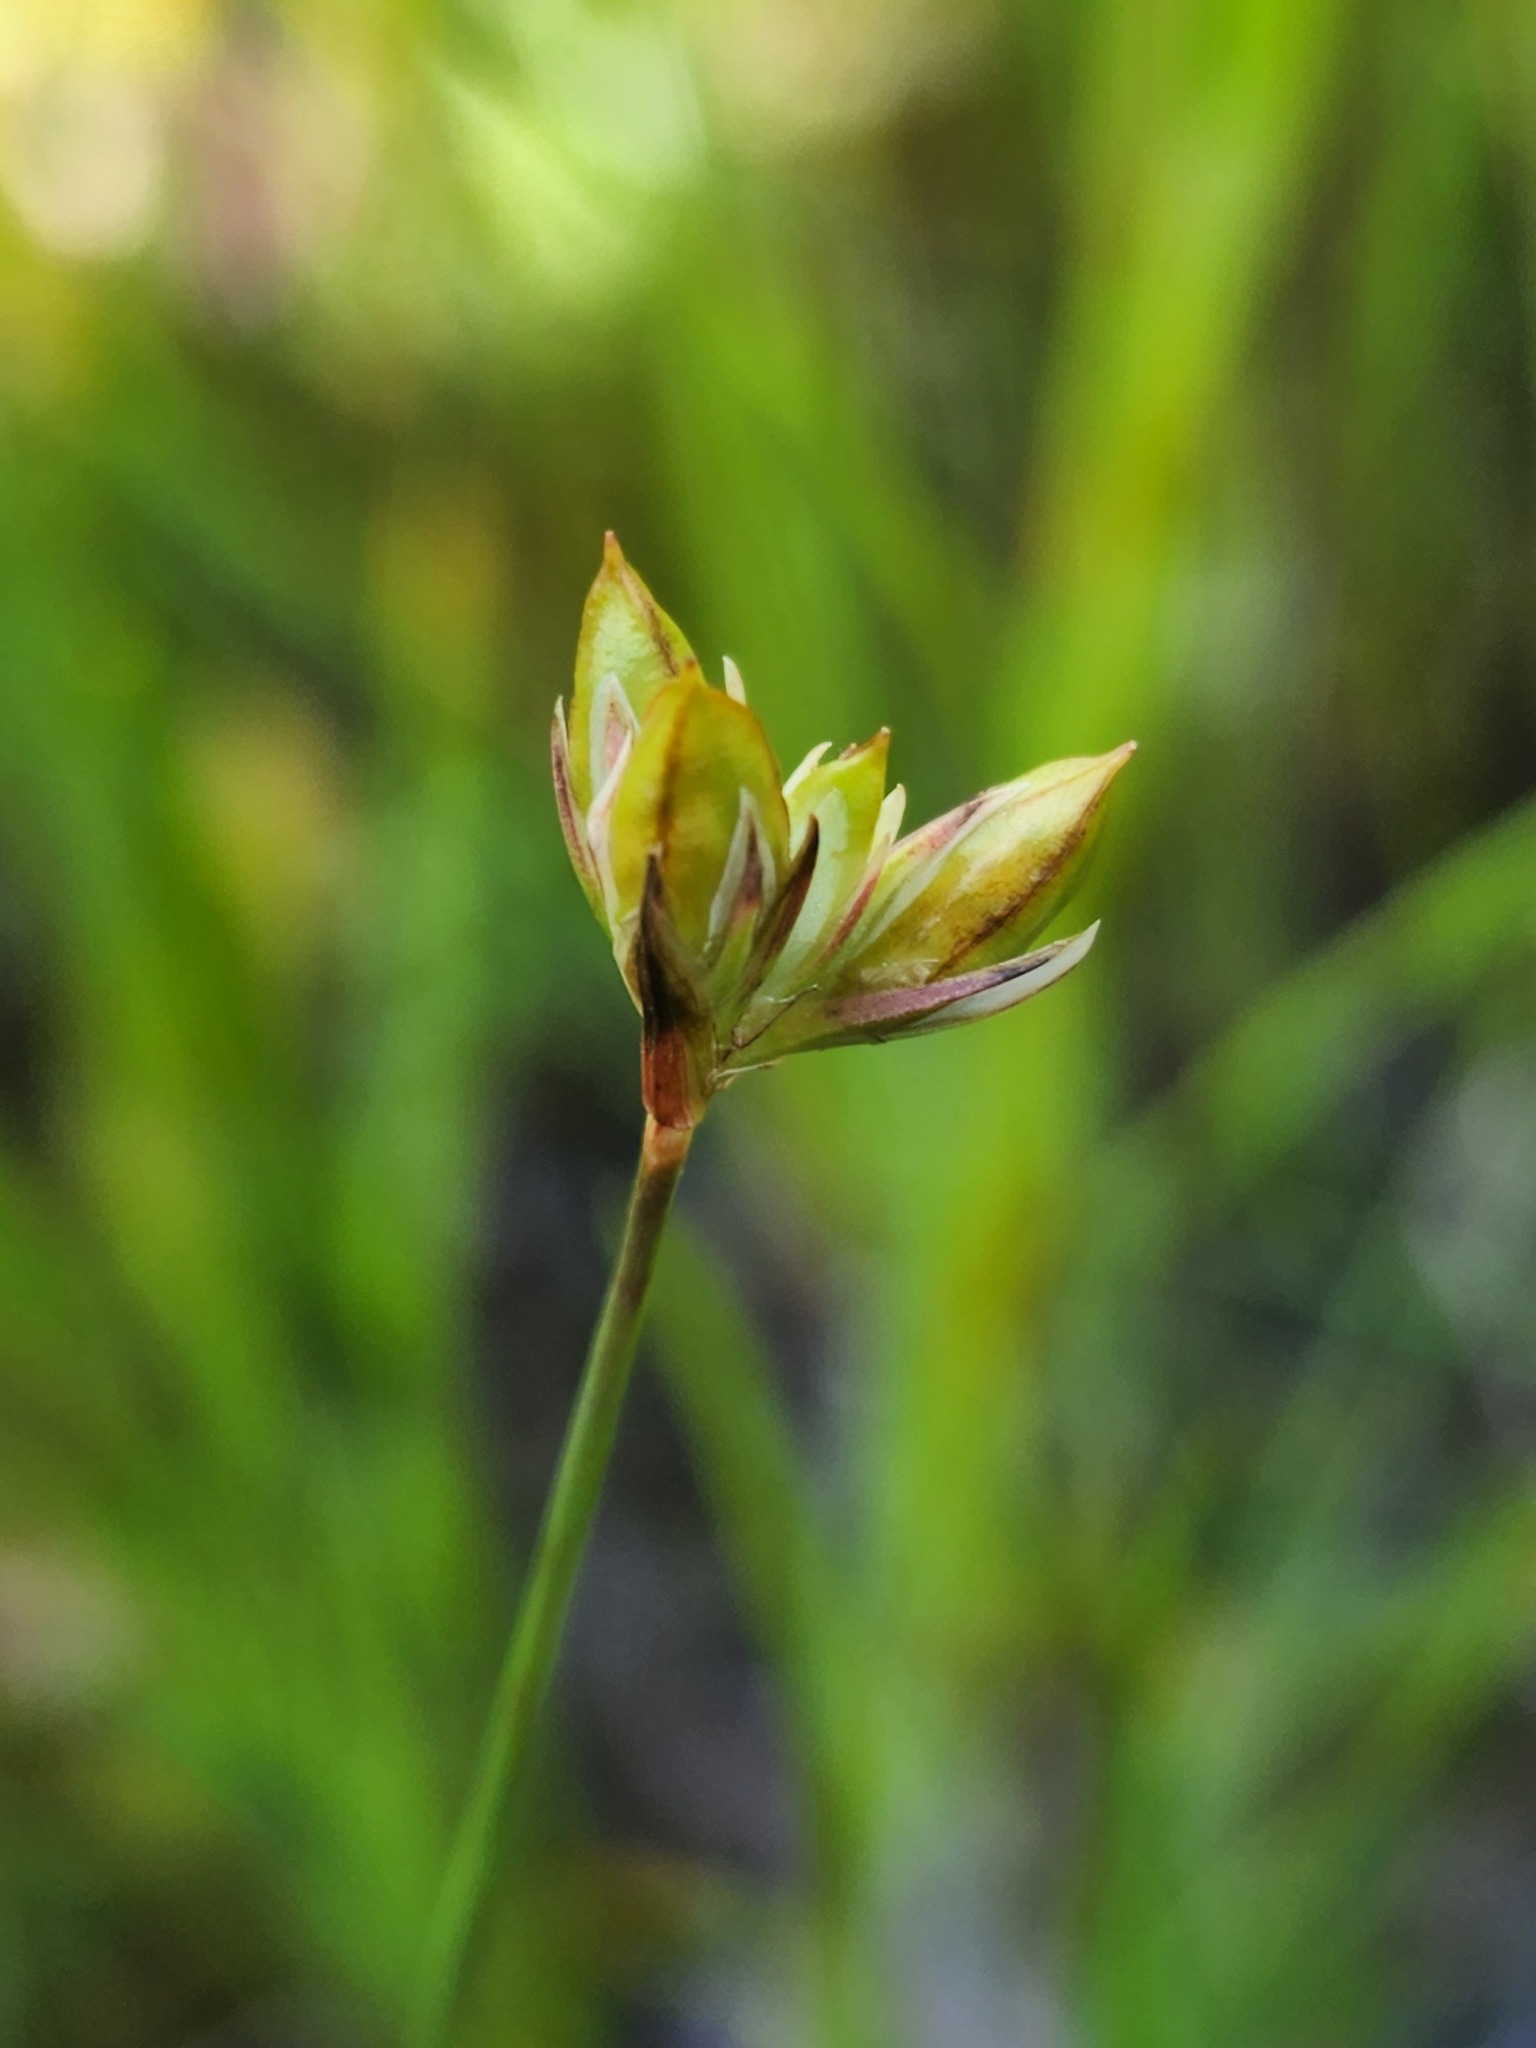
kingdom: Plantae
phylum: Tracheophyta
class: Liliopsida
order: Poales
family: Juncaceae
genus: Juncus
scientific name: Juncus stygius
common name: Bog rush
